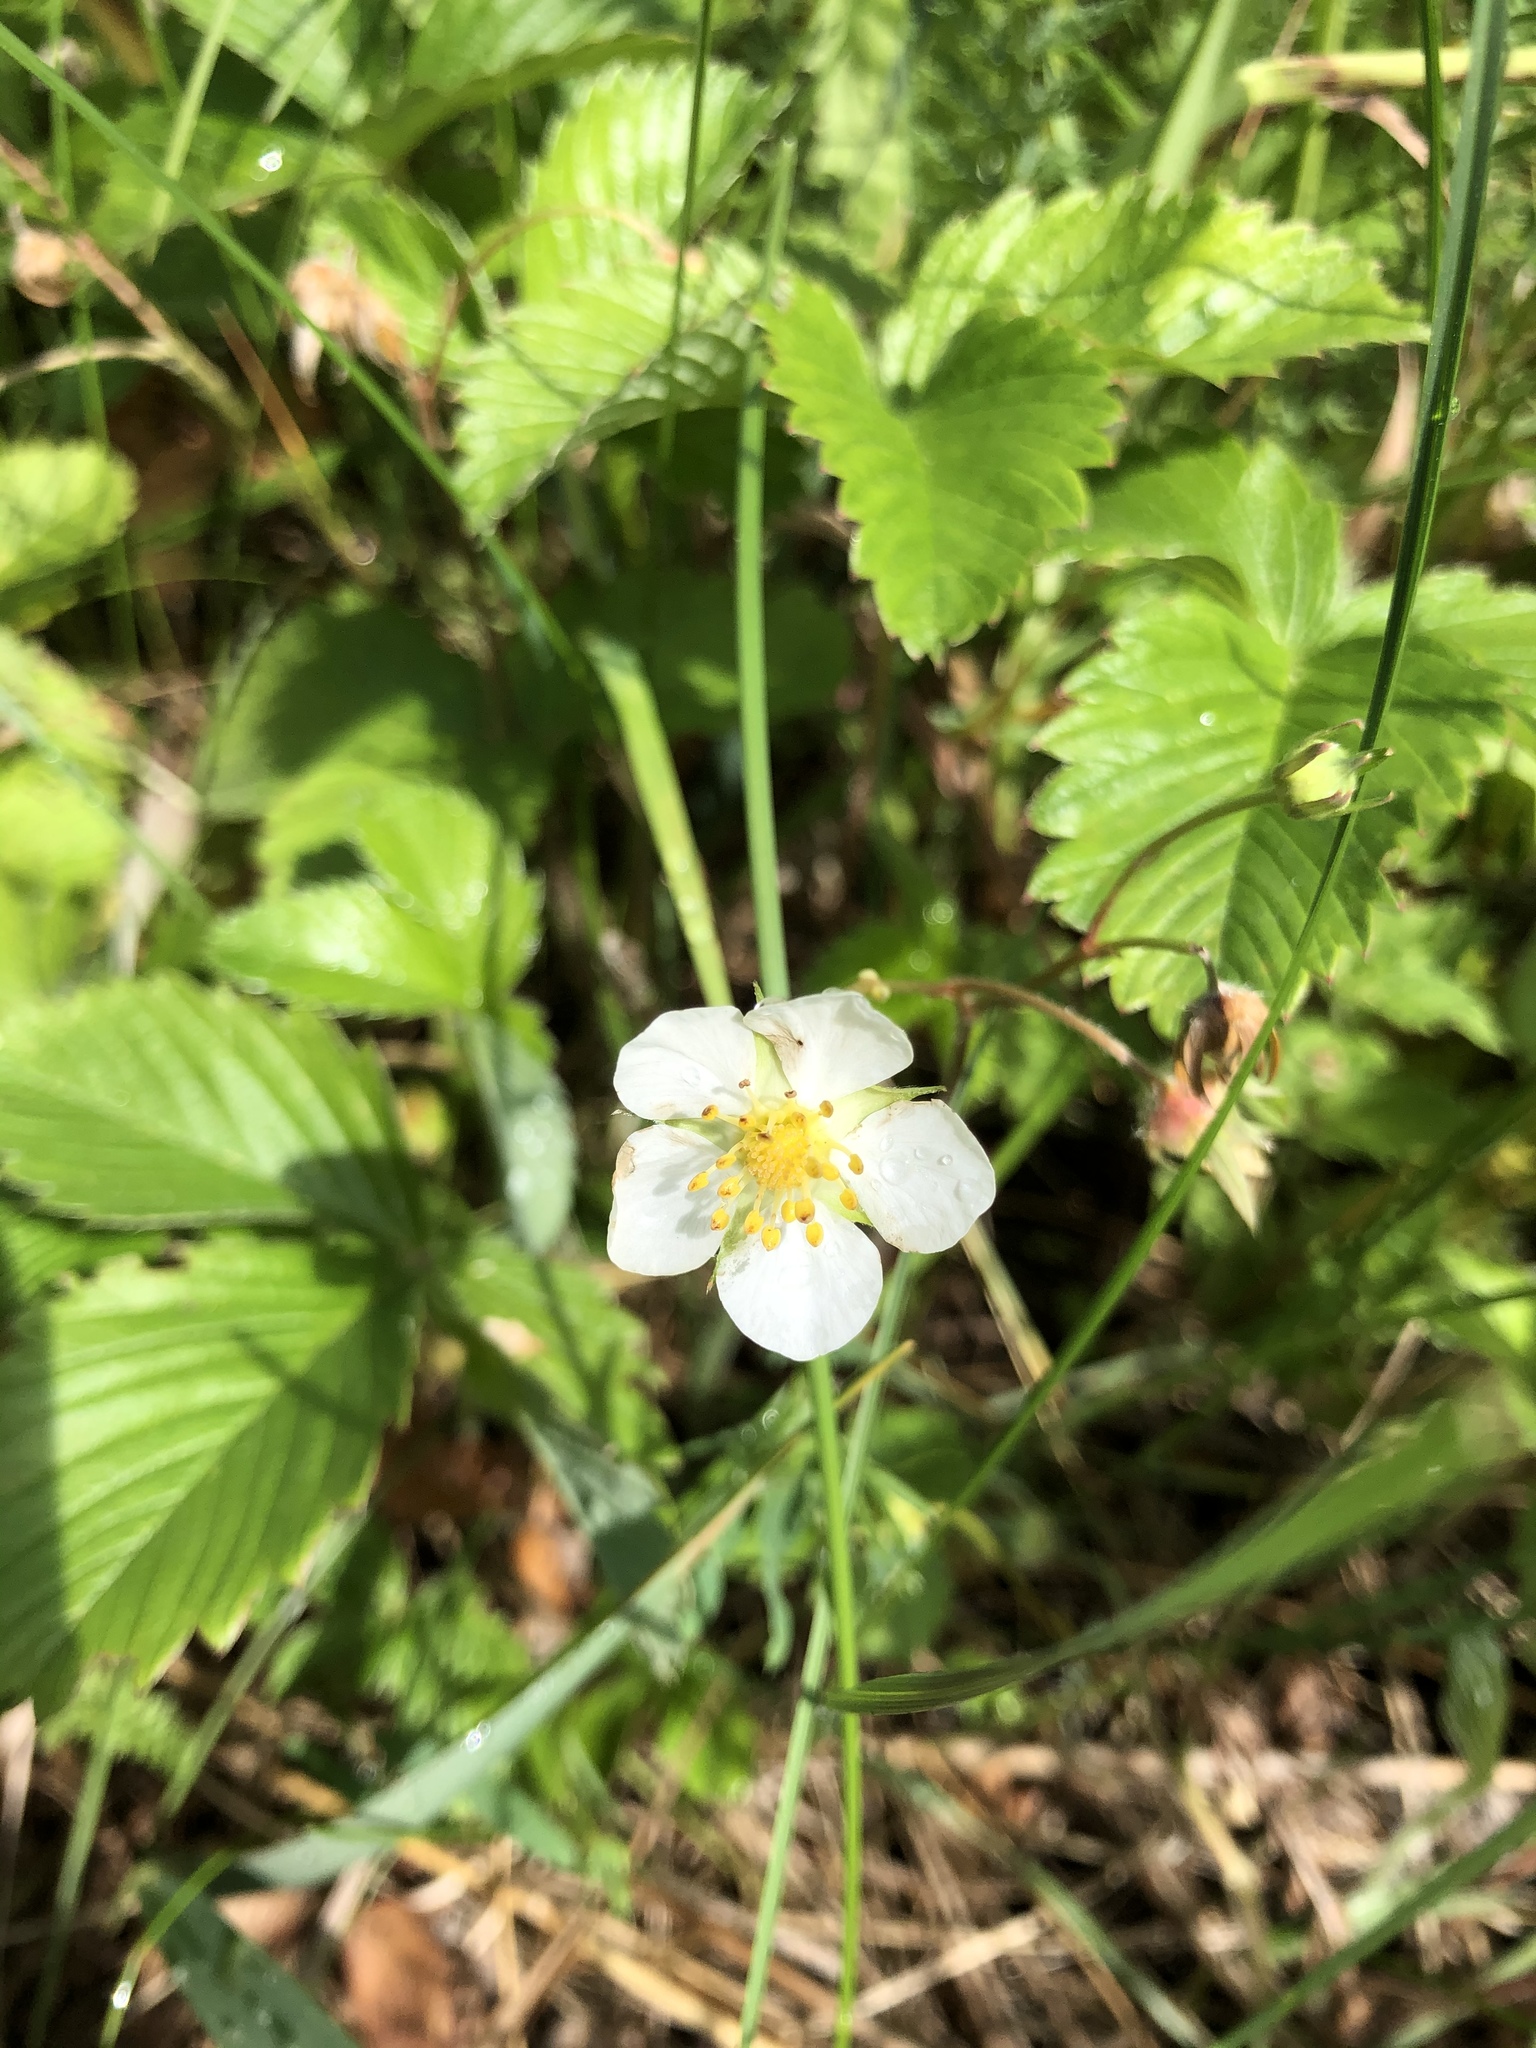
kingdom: Plantae
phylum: Tracheophyta
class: Magnoliopsida
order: Rosales
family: Rosaceae
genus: Fragaria
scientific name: Fragaria viridis
